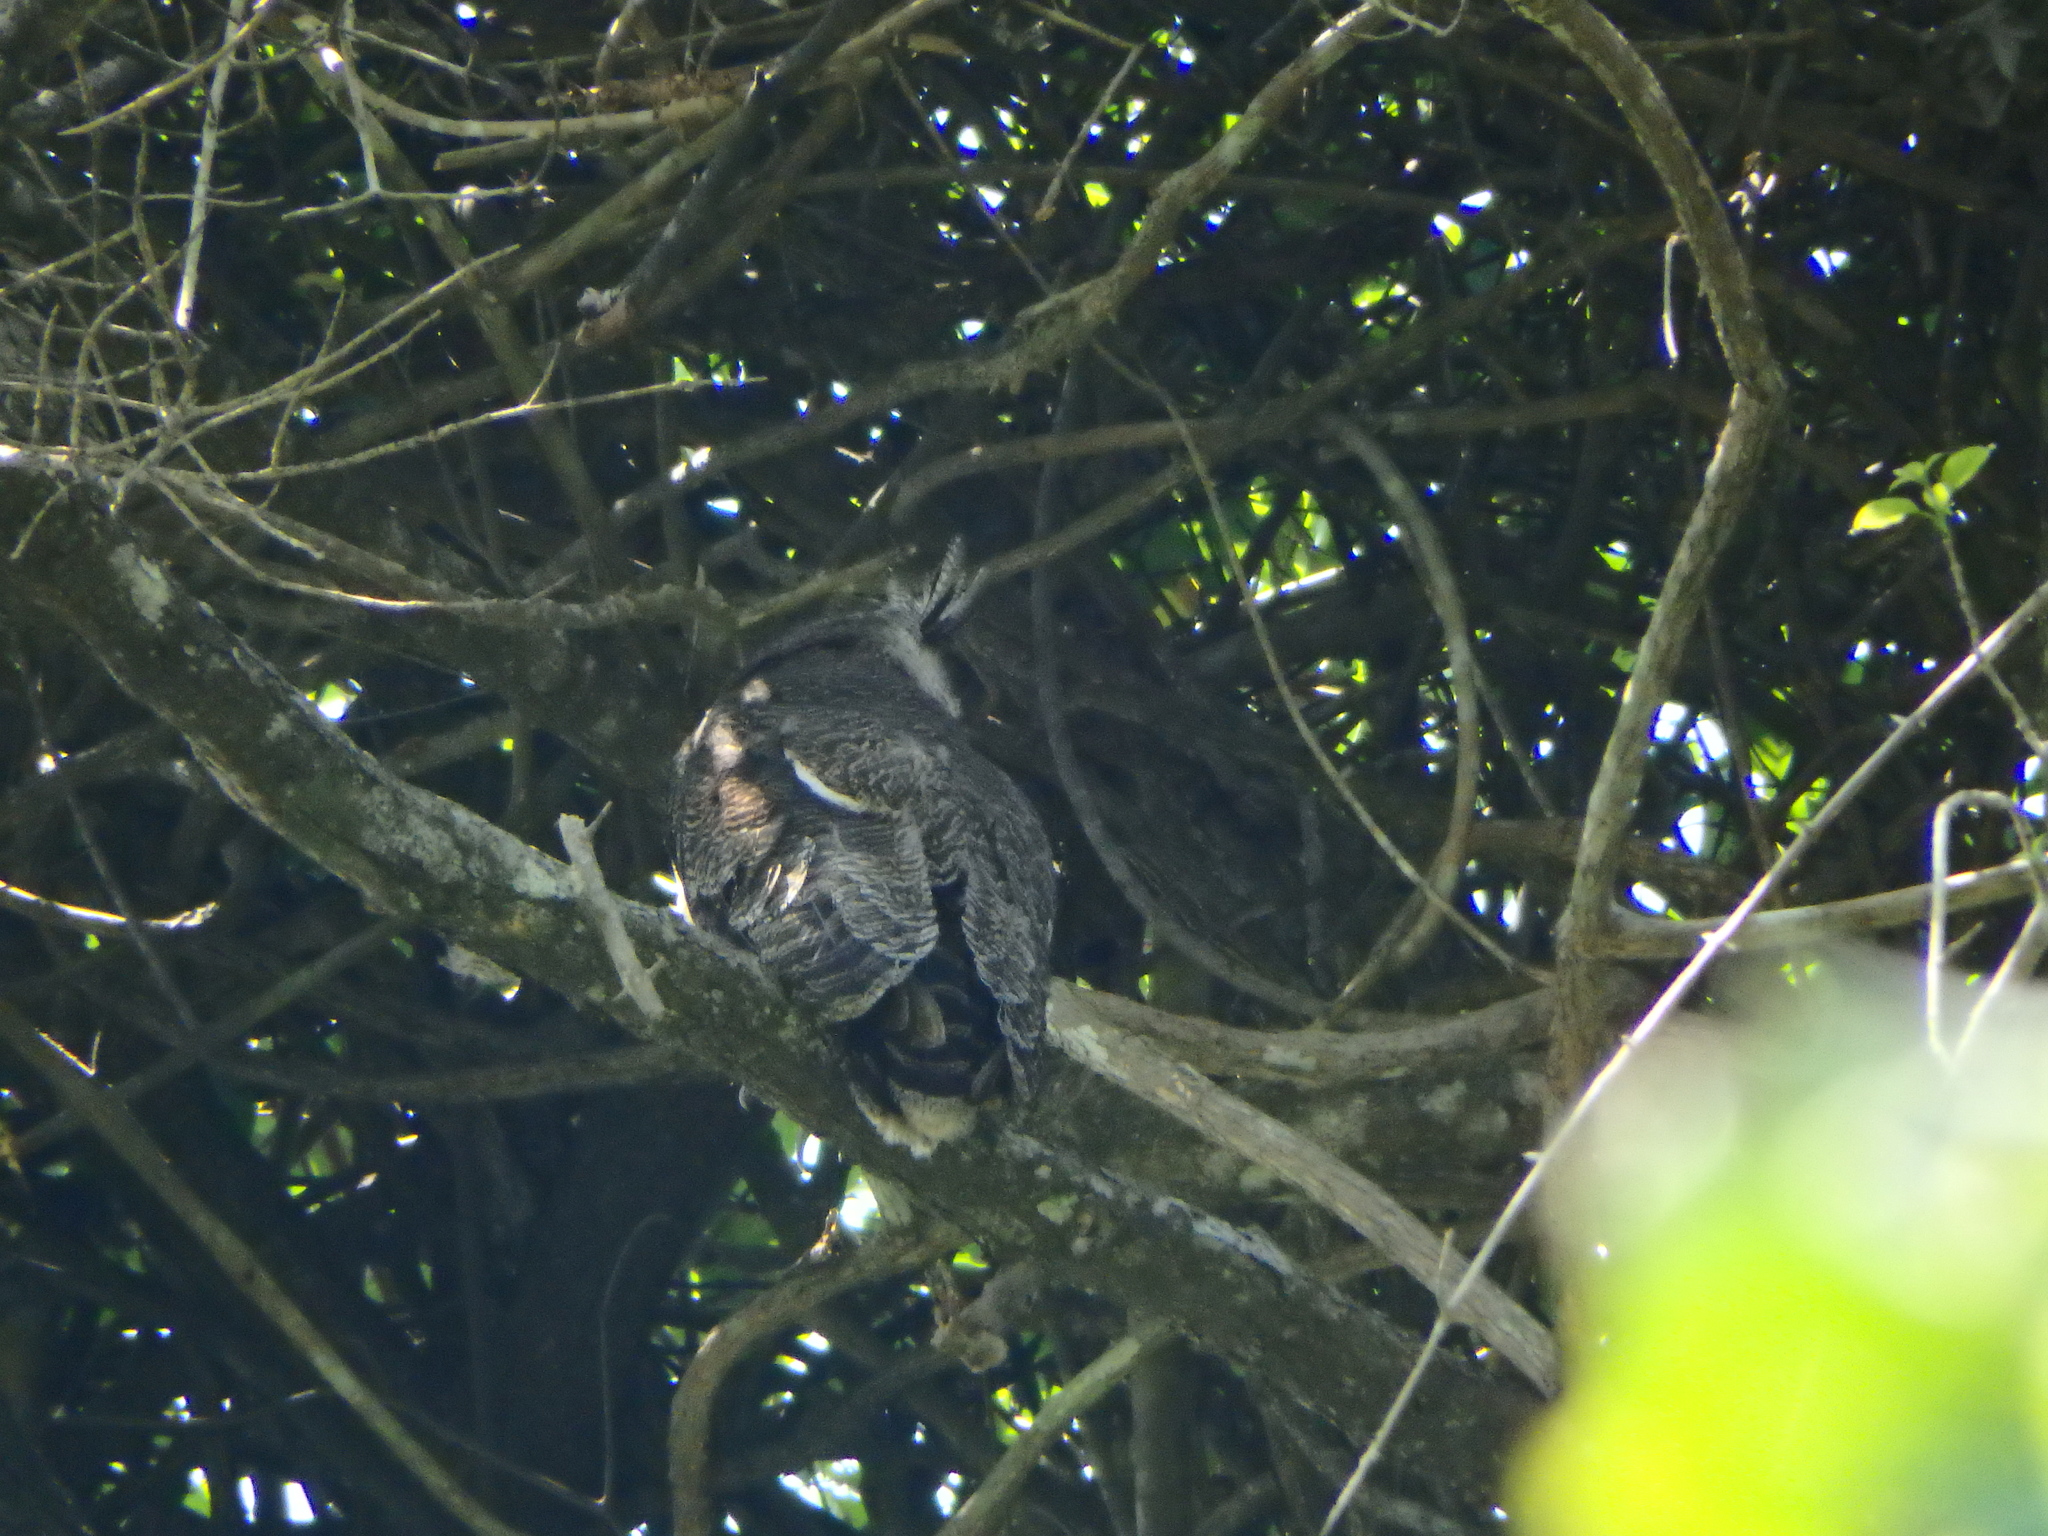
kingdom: Animalia
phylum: Chordata
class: Aves
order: Strigiformes
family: Strigidae
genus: Ketupa
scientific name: Ketupa sumatrana
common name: Barred eagle-owl
